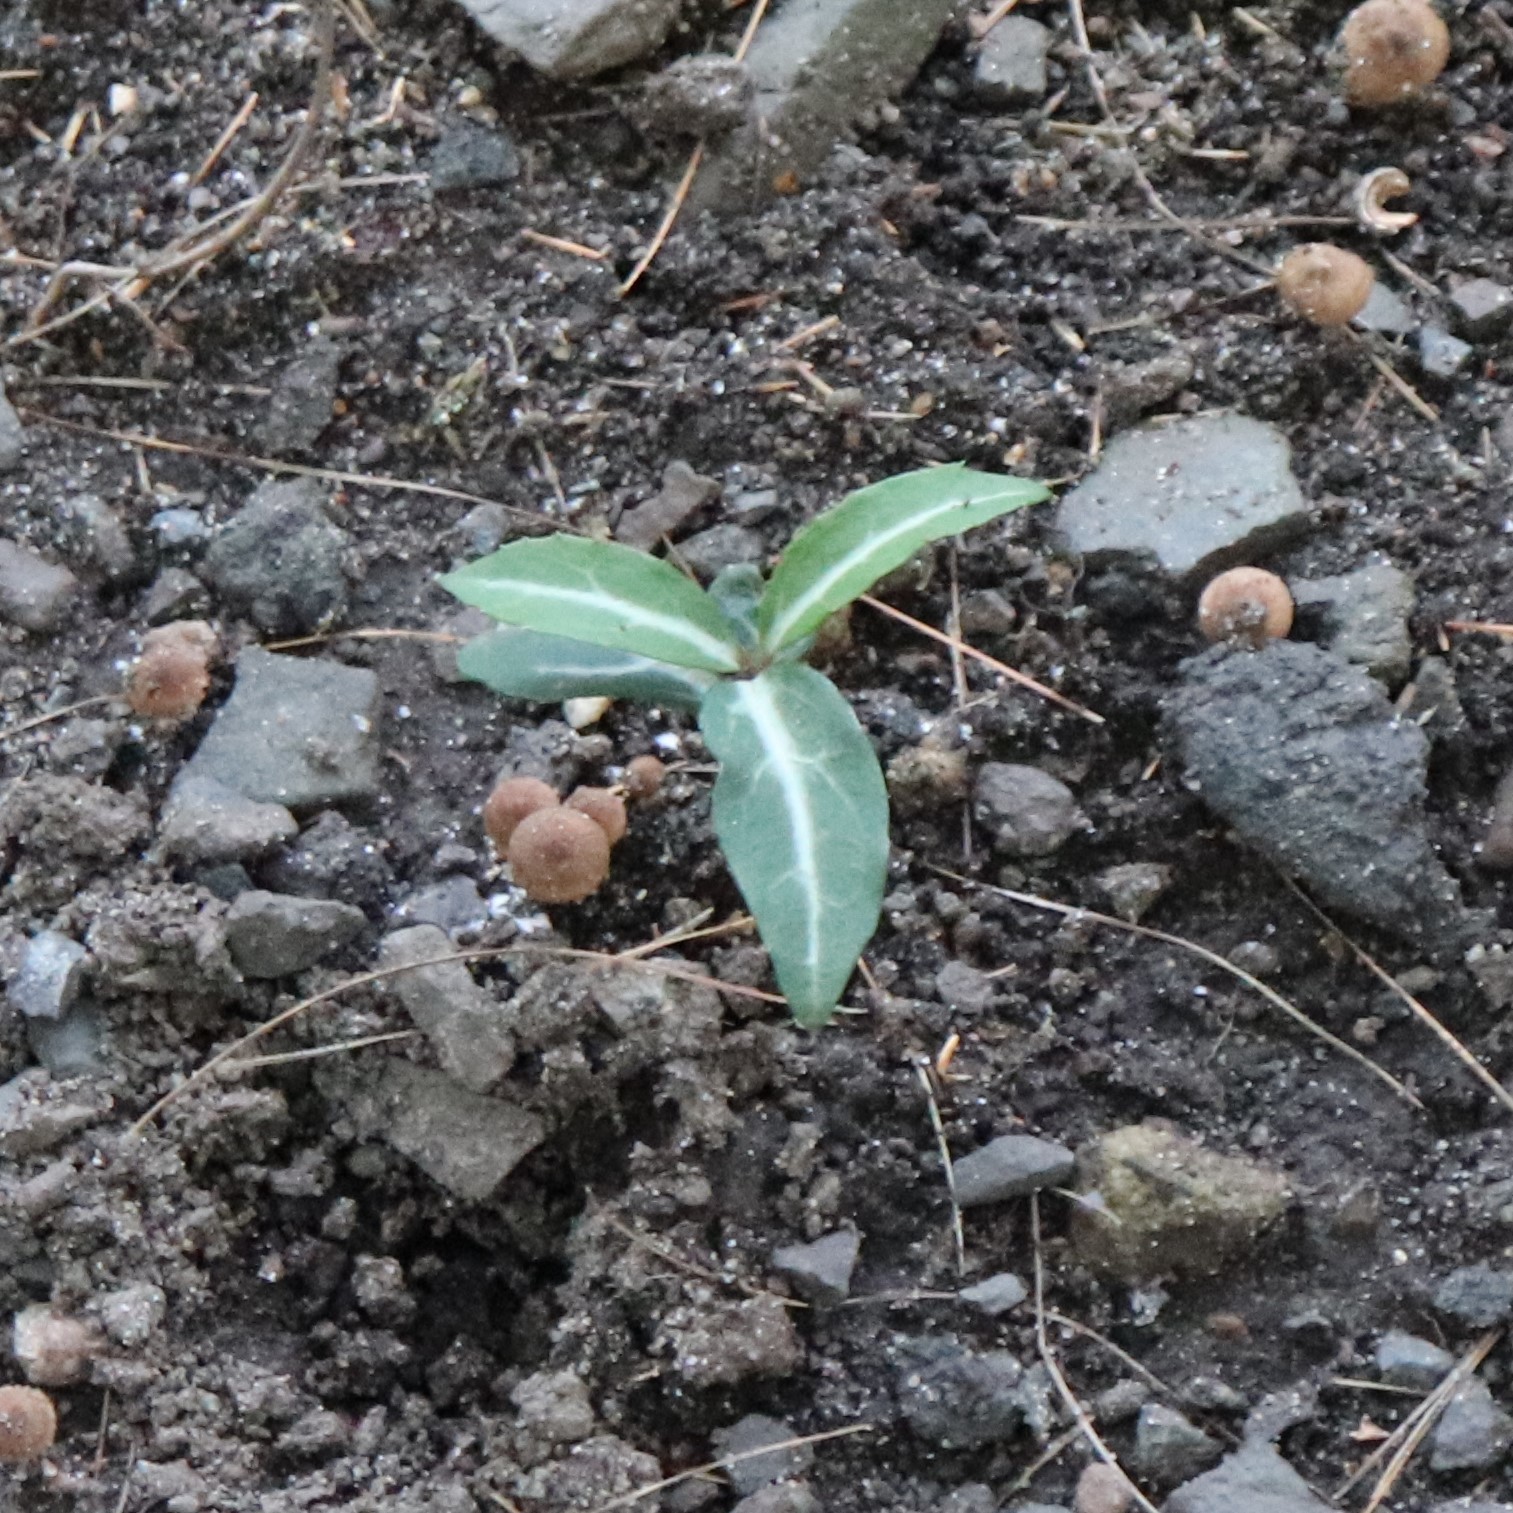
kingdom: Plantae
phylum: Tracheophyta
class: Magnoliopsida
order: Ericales
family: Ericaceae
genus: Chimaphila
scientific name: Chimaphila maculata
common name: Spotted pipsissewa
